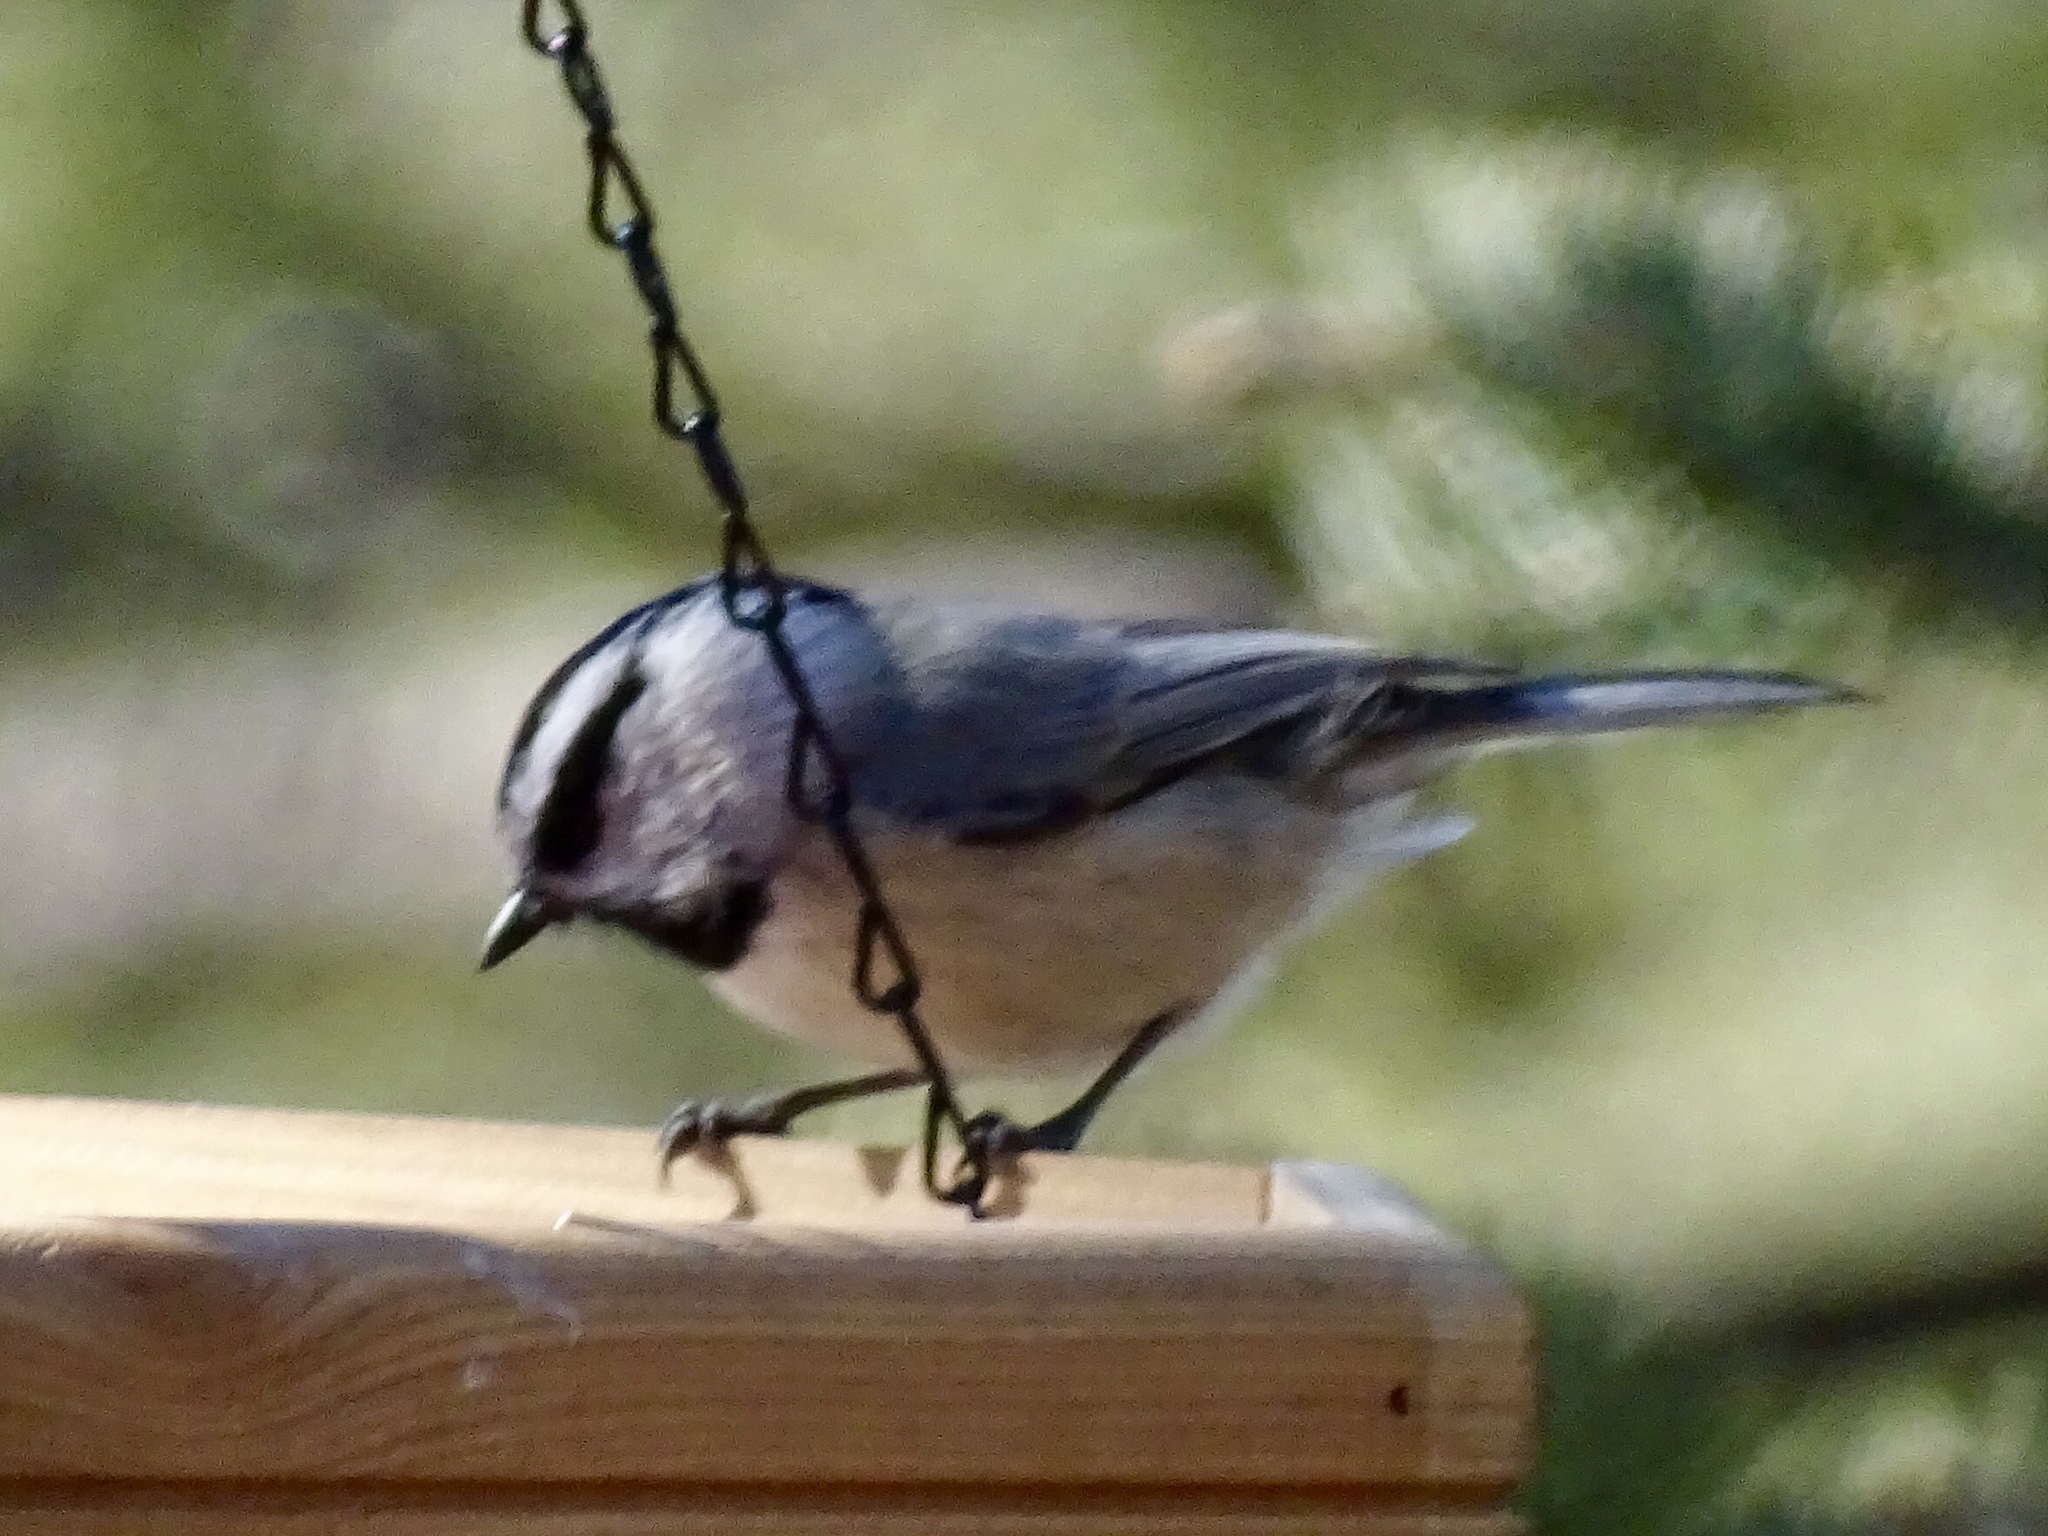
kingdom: Animalia
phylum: Chordata
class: Aves
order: Passeriformes
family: Paridae
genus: Poecile
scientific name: Poecile gambeli
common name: Mountain chickadee
